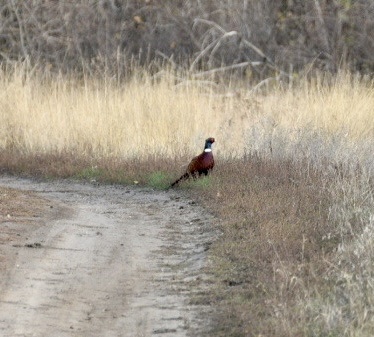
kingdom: Animalia
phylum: Chordata
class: Aves
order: Galliformes
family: Phasianidae
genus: Phasianus
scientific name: Phasianus colchicus
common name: Common pheasant
